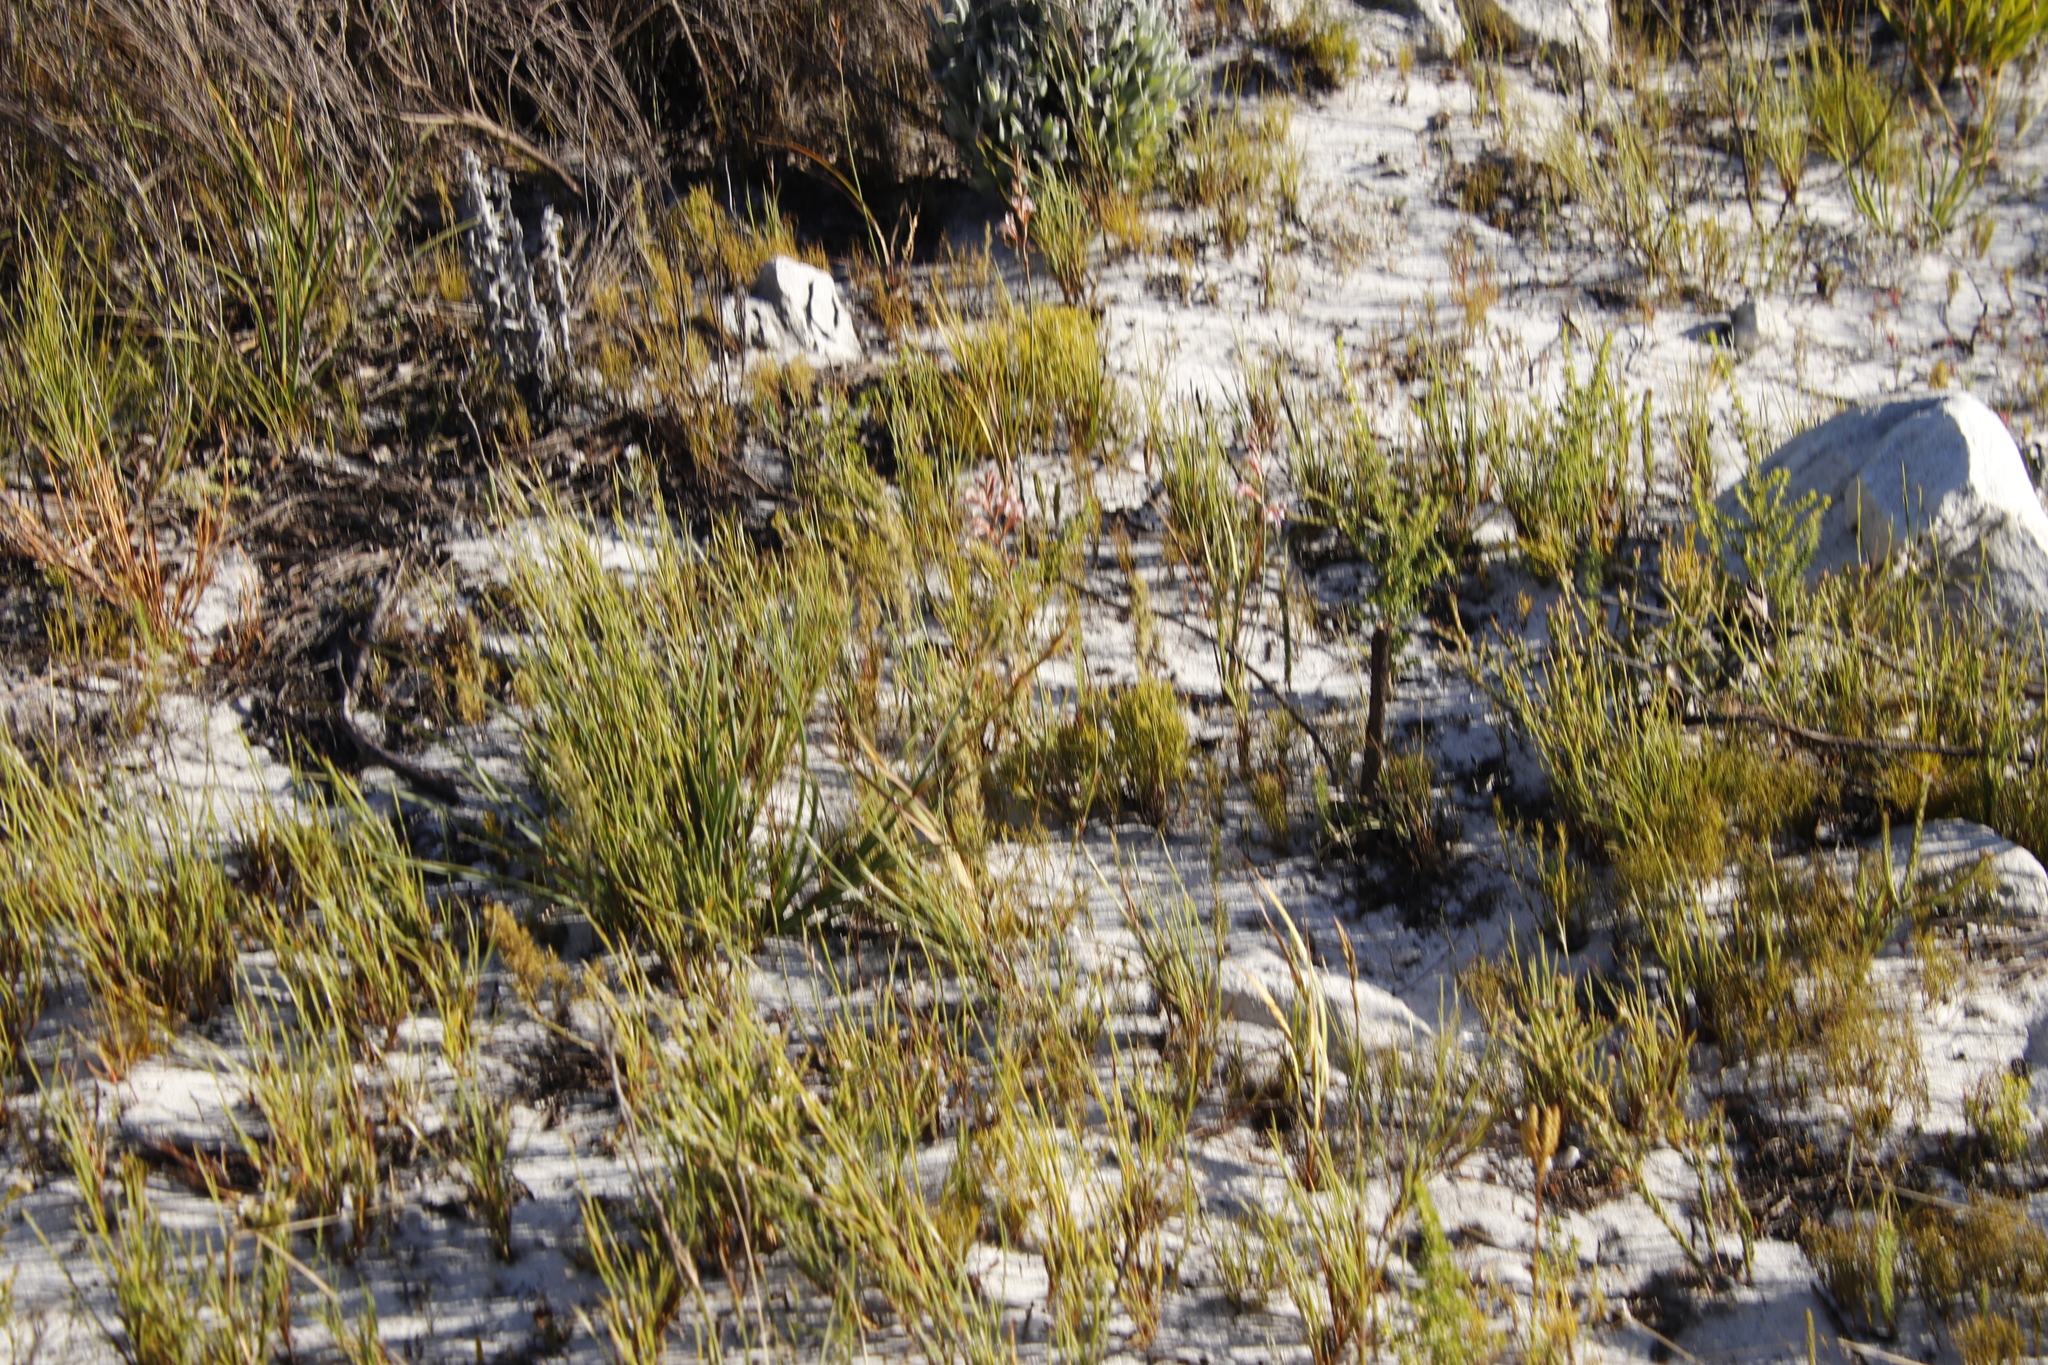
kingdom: Plantae
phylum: Tracheophyta
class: Liliopsida
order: Asparagales
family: Iridaceae
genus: Tritoniopsis
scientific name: Tritoniopsis dodii
